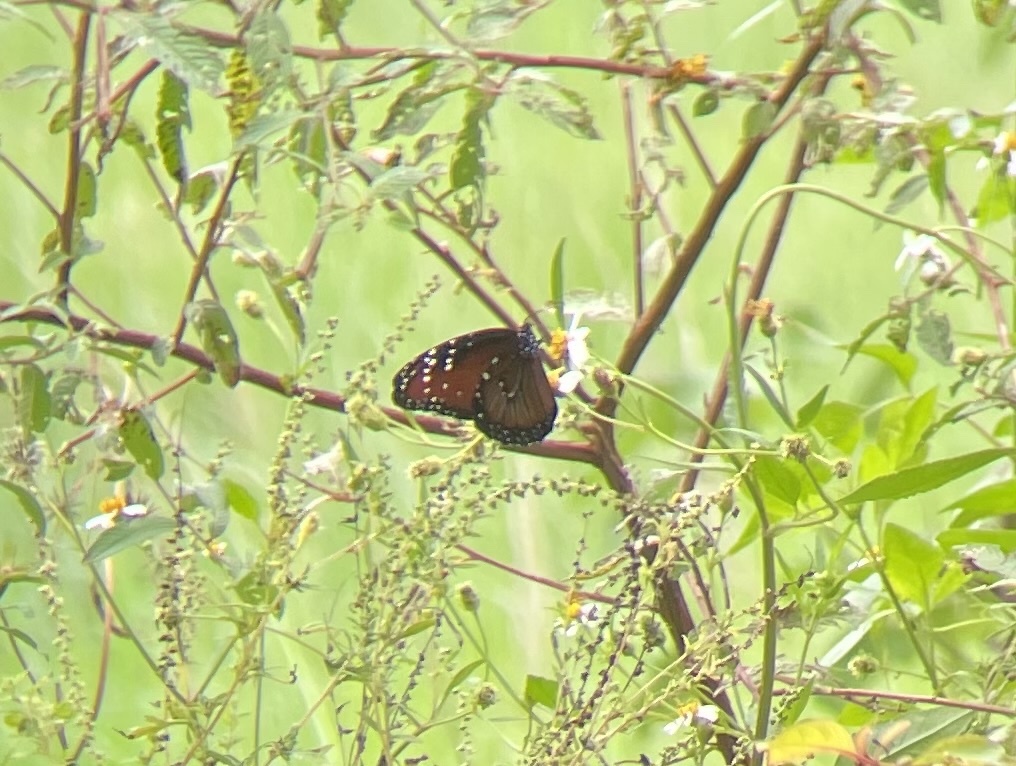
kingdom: Animalia
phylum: Arthropoda
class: Insecta
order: Lepidoptera
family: Nymphalidae
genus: Danaus
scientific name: Danaus gilippus
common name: Queen
